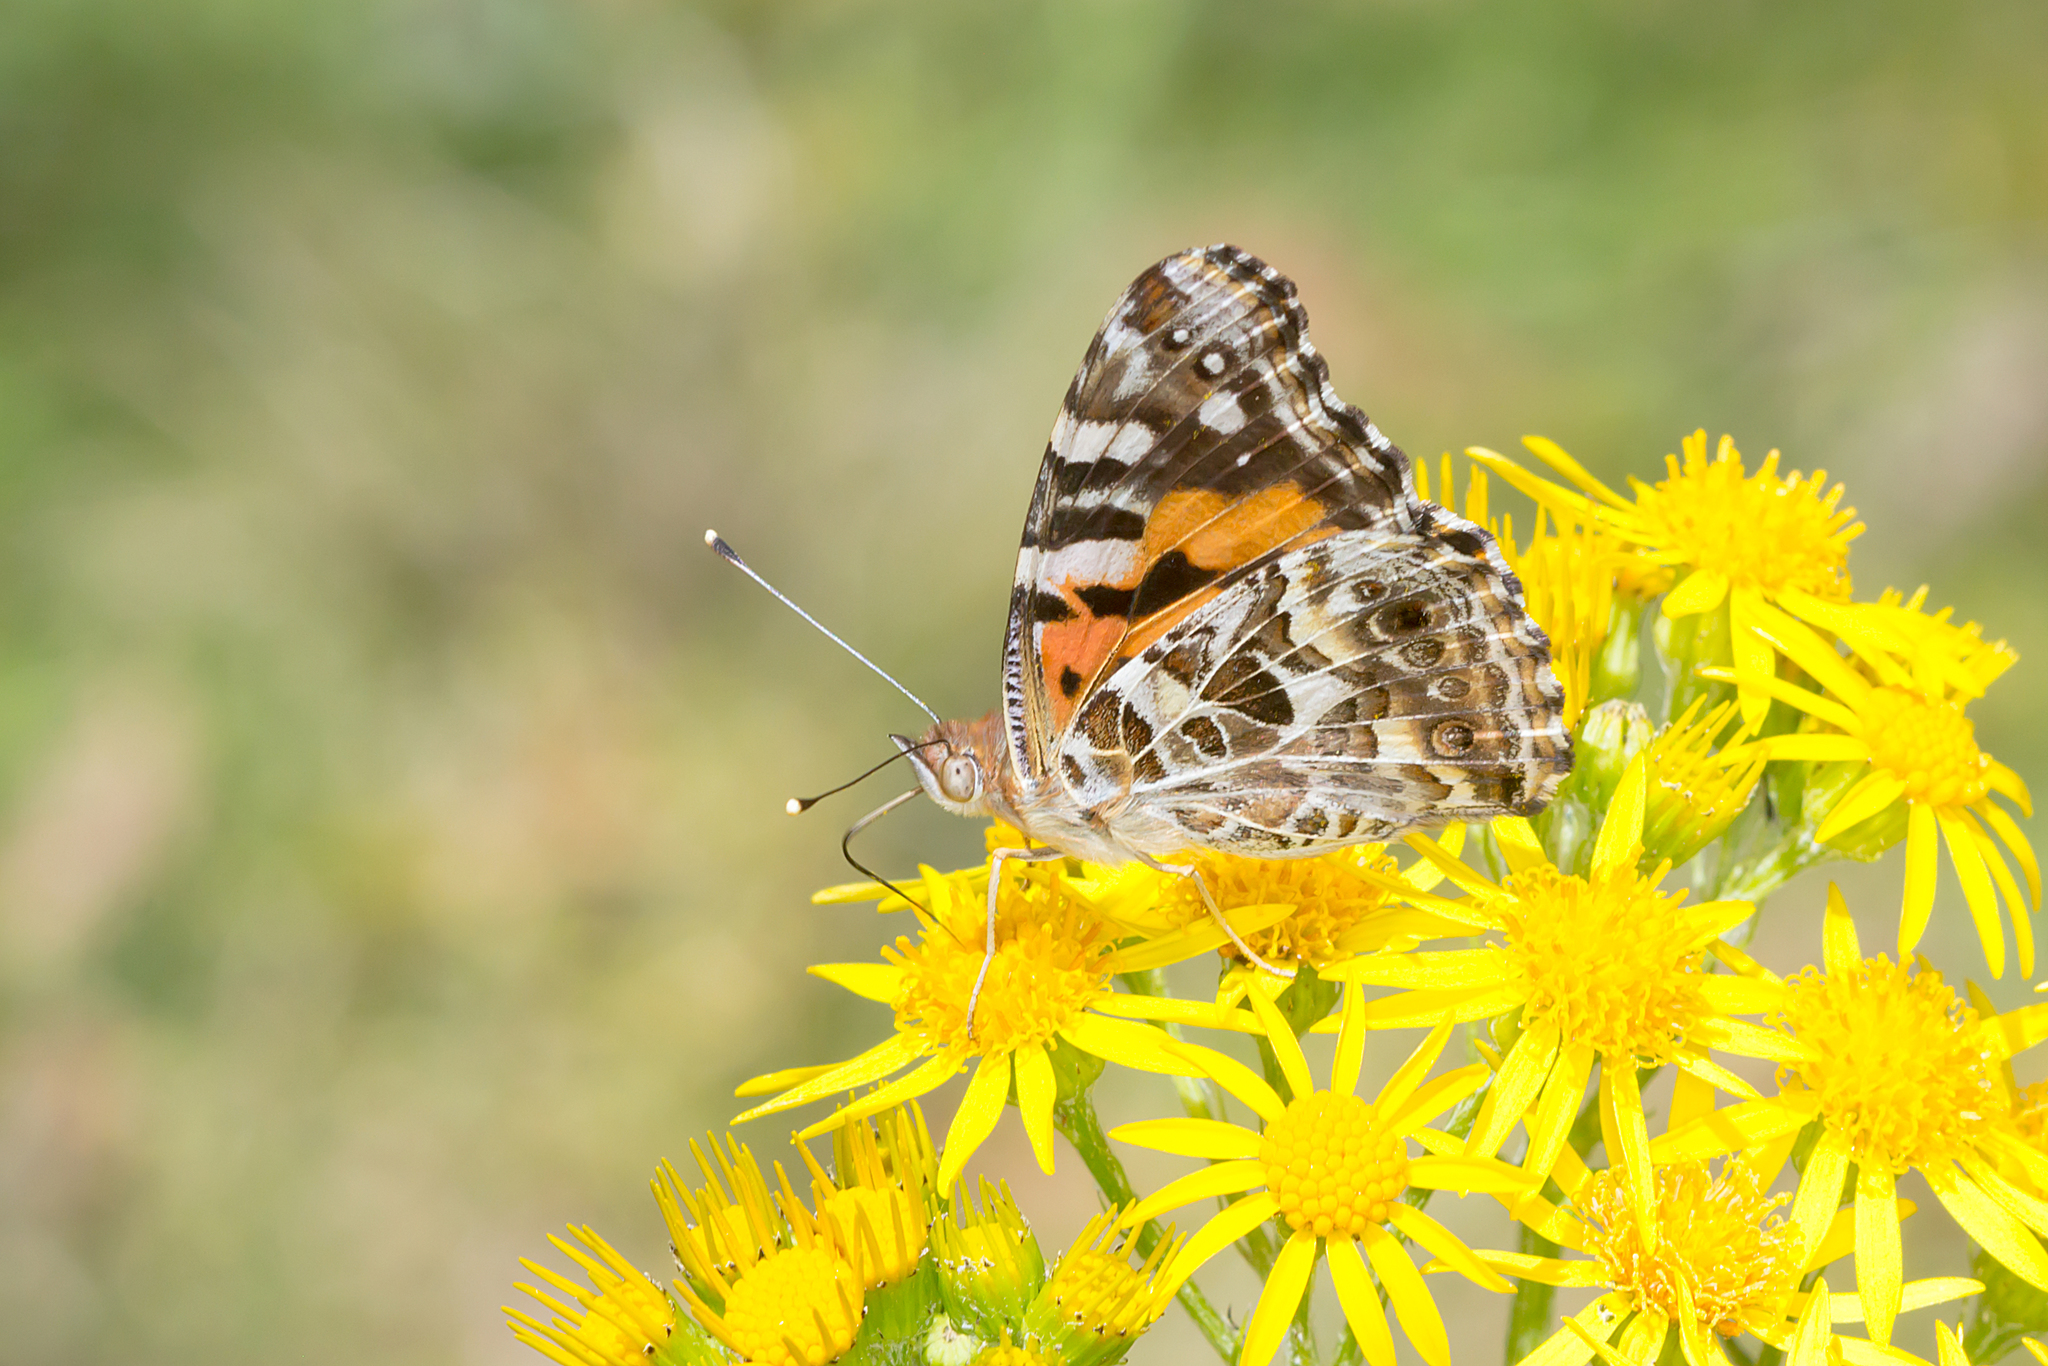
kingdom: Animalia
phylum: Arthropoda
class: Insecta
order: Lepidoptera
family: Nymphalidae
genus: Vanessa
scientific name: Vanessa kershawi
